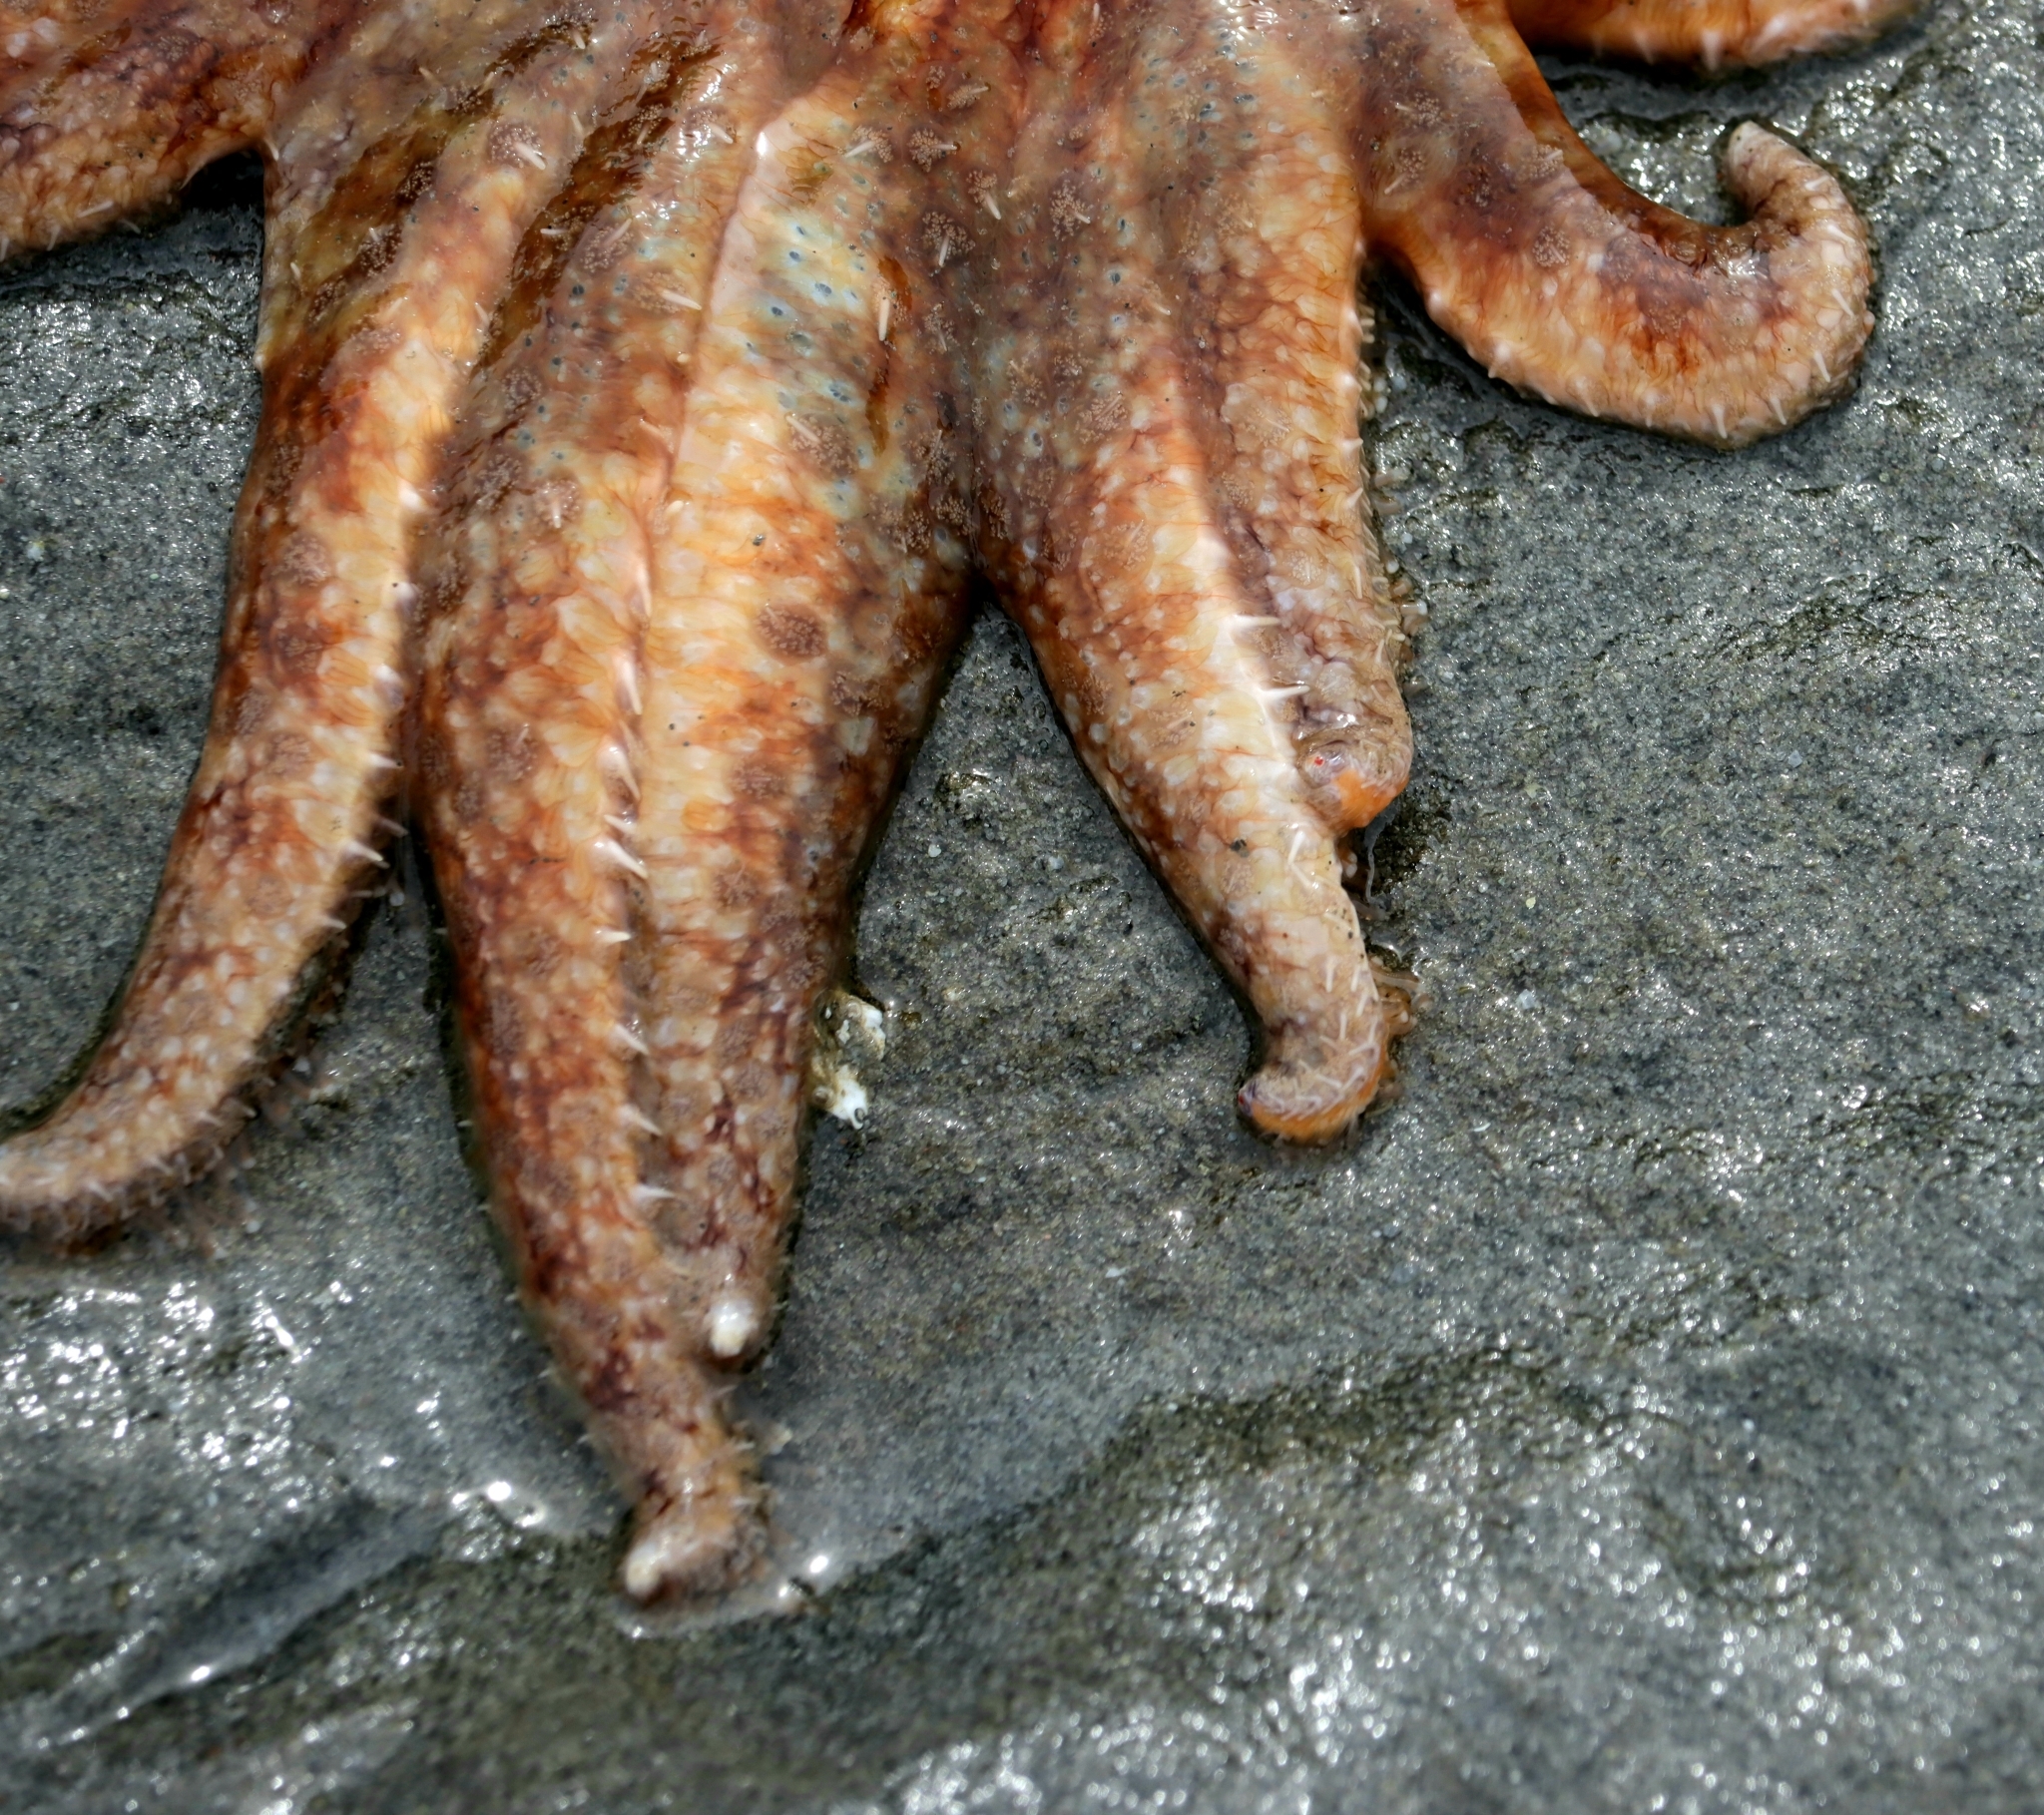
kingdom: Animalia
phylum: Echinodermata
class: Asteroidea
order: Forcipulatida
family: Asteriidae
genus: Pycnopodia
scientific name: Pycnopodia helianthoides
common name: Rag mop
